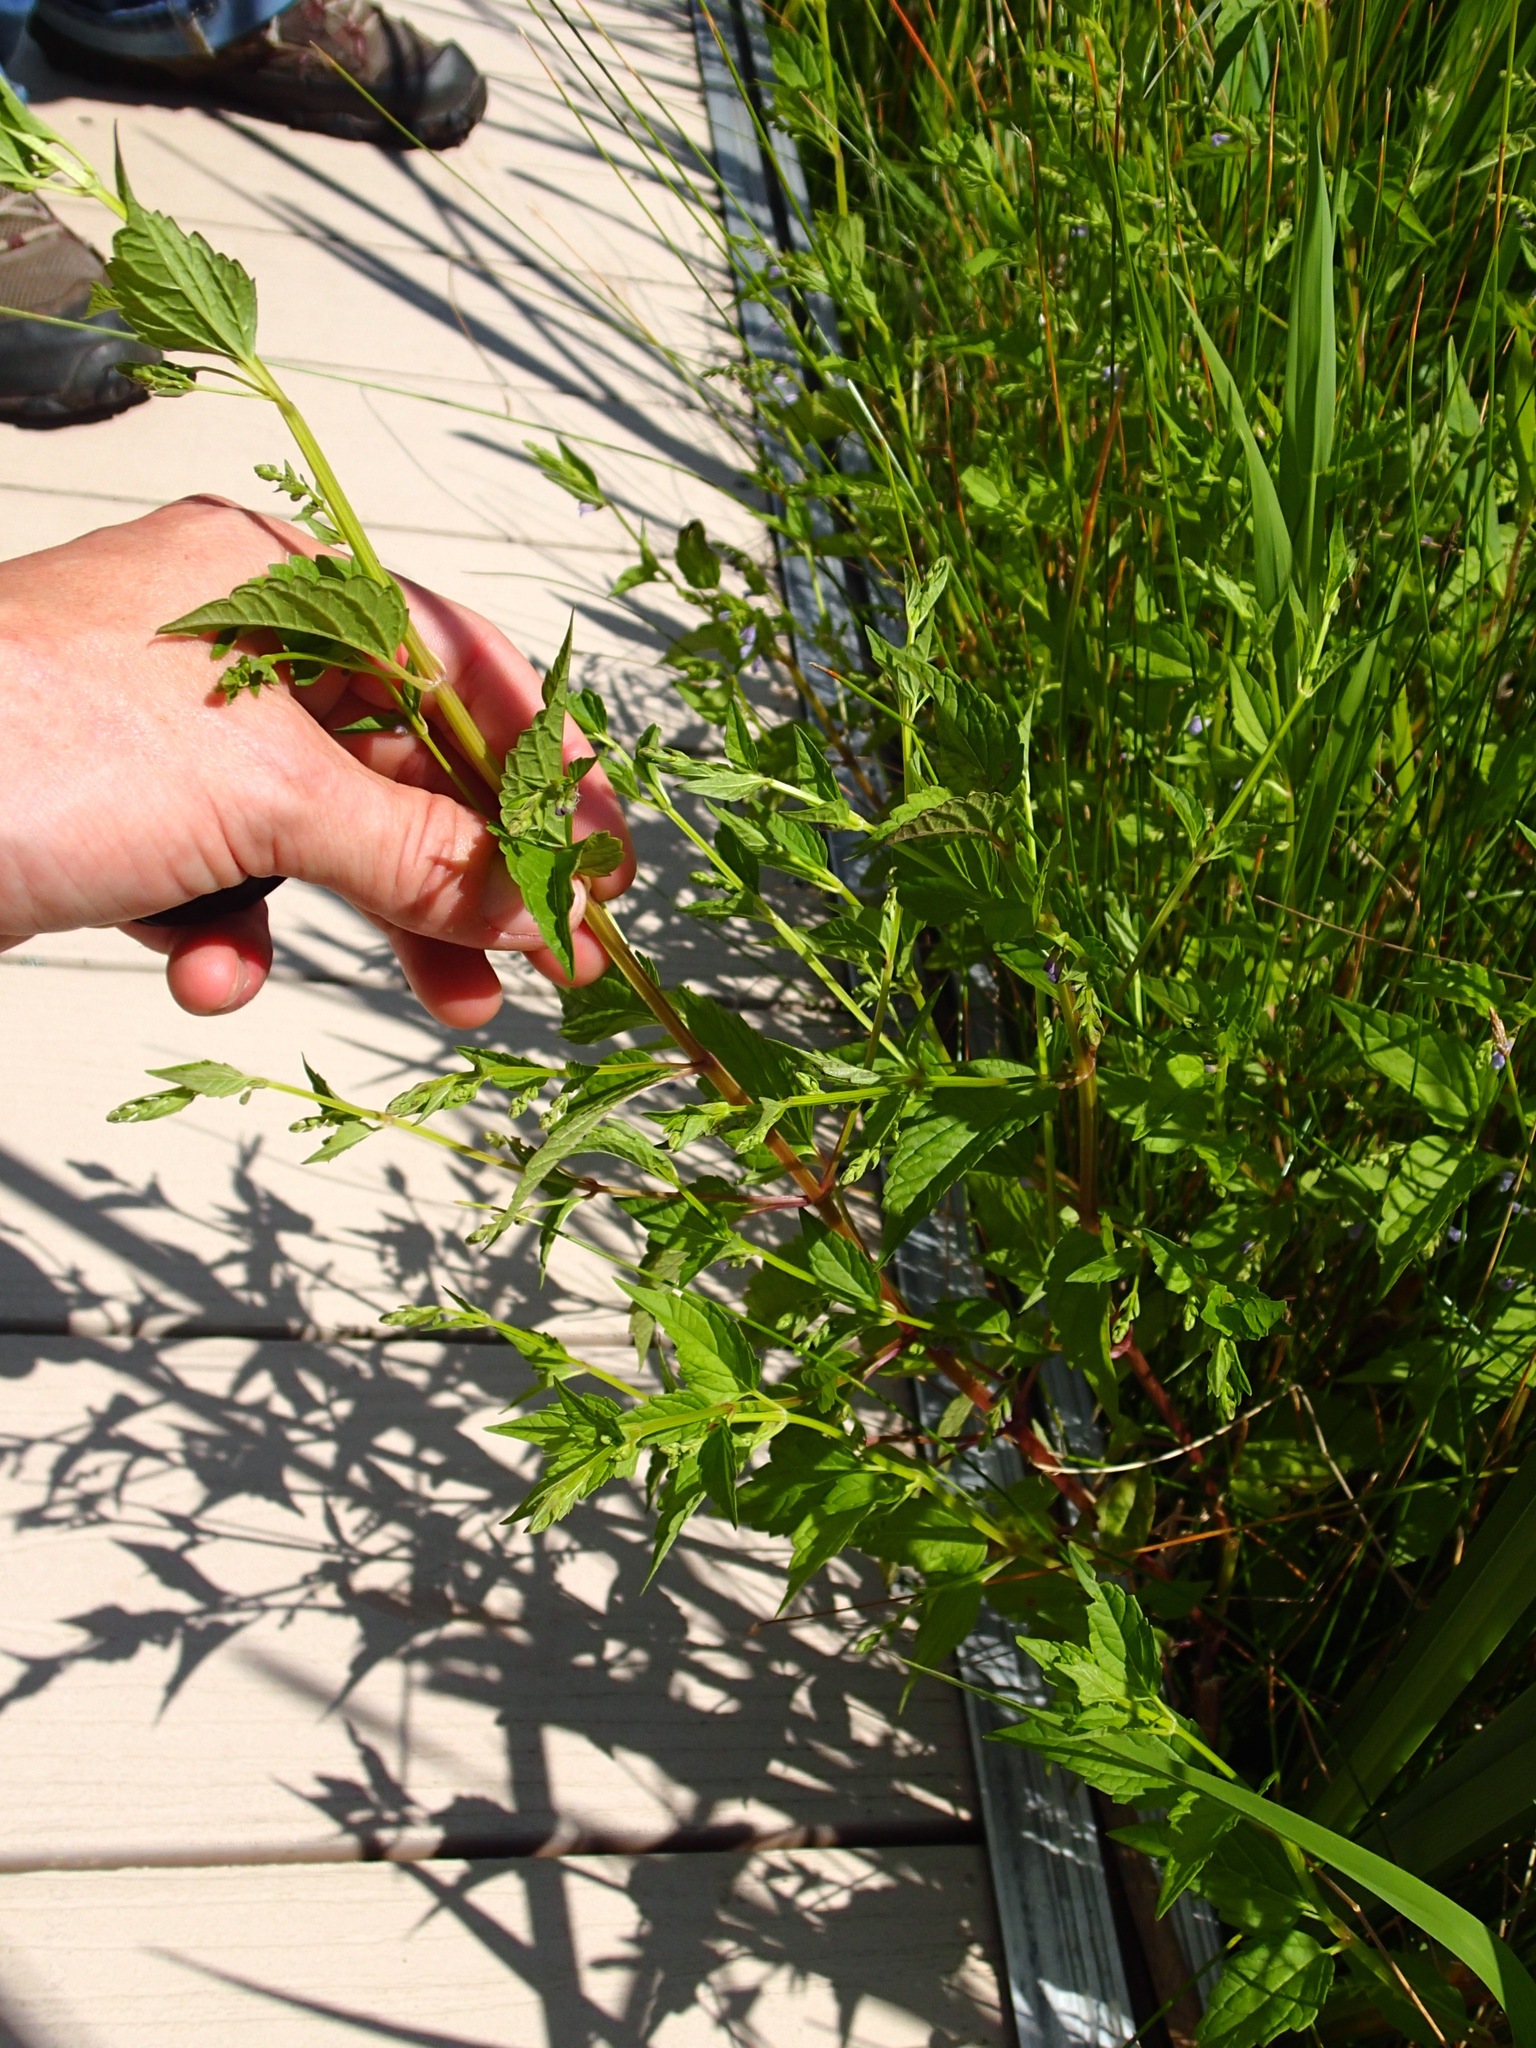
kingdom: Plantae
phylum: Tracheophyta
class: Magnoliopsida
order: Lamiales
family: Lamiaceae
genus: Scutellaria
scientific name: Scutellaria lateriflora
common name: Blue skullcap
